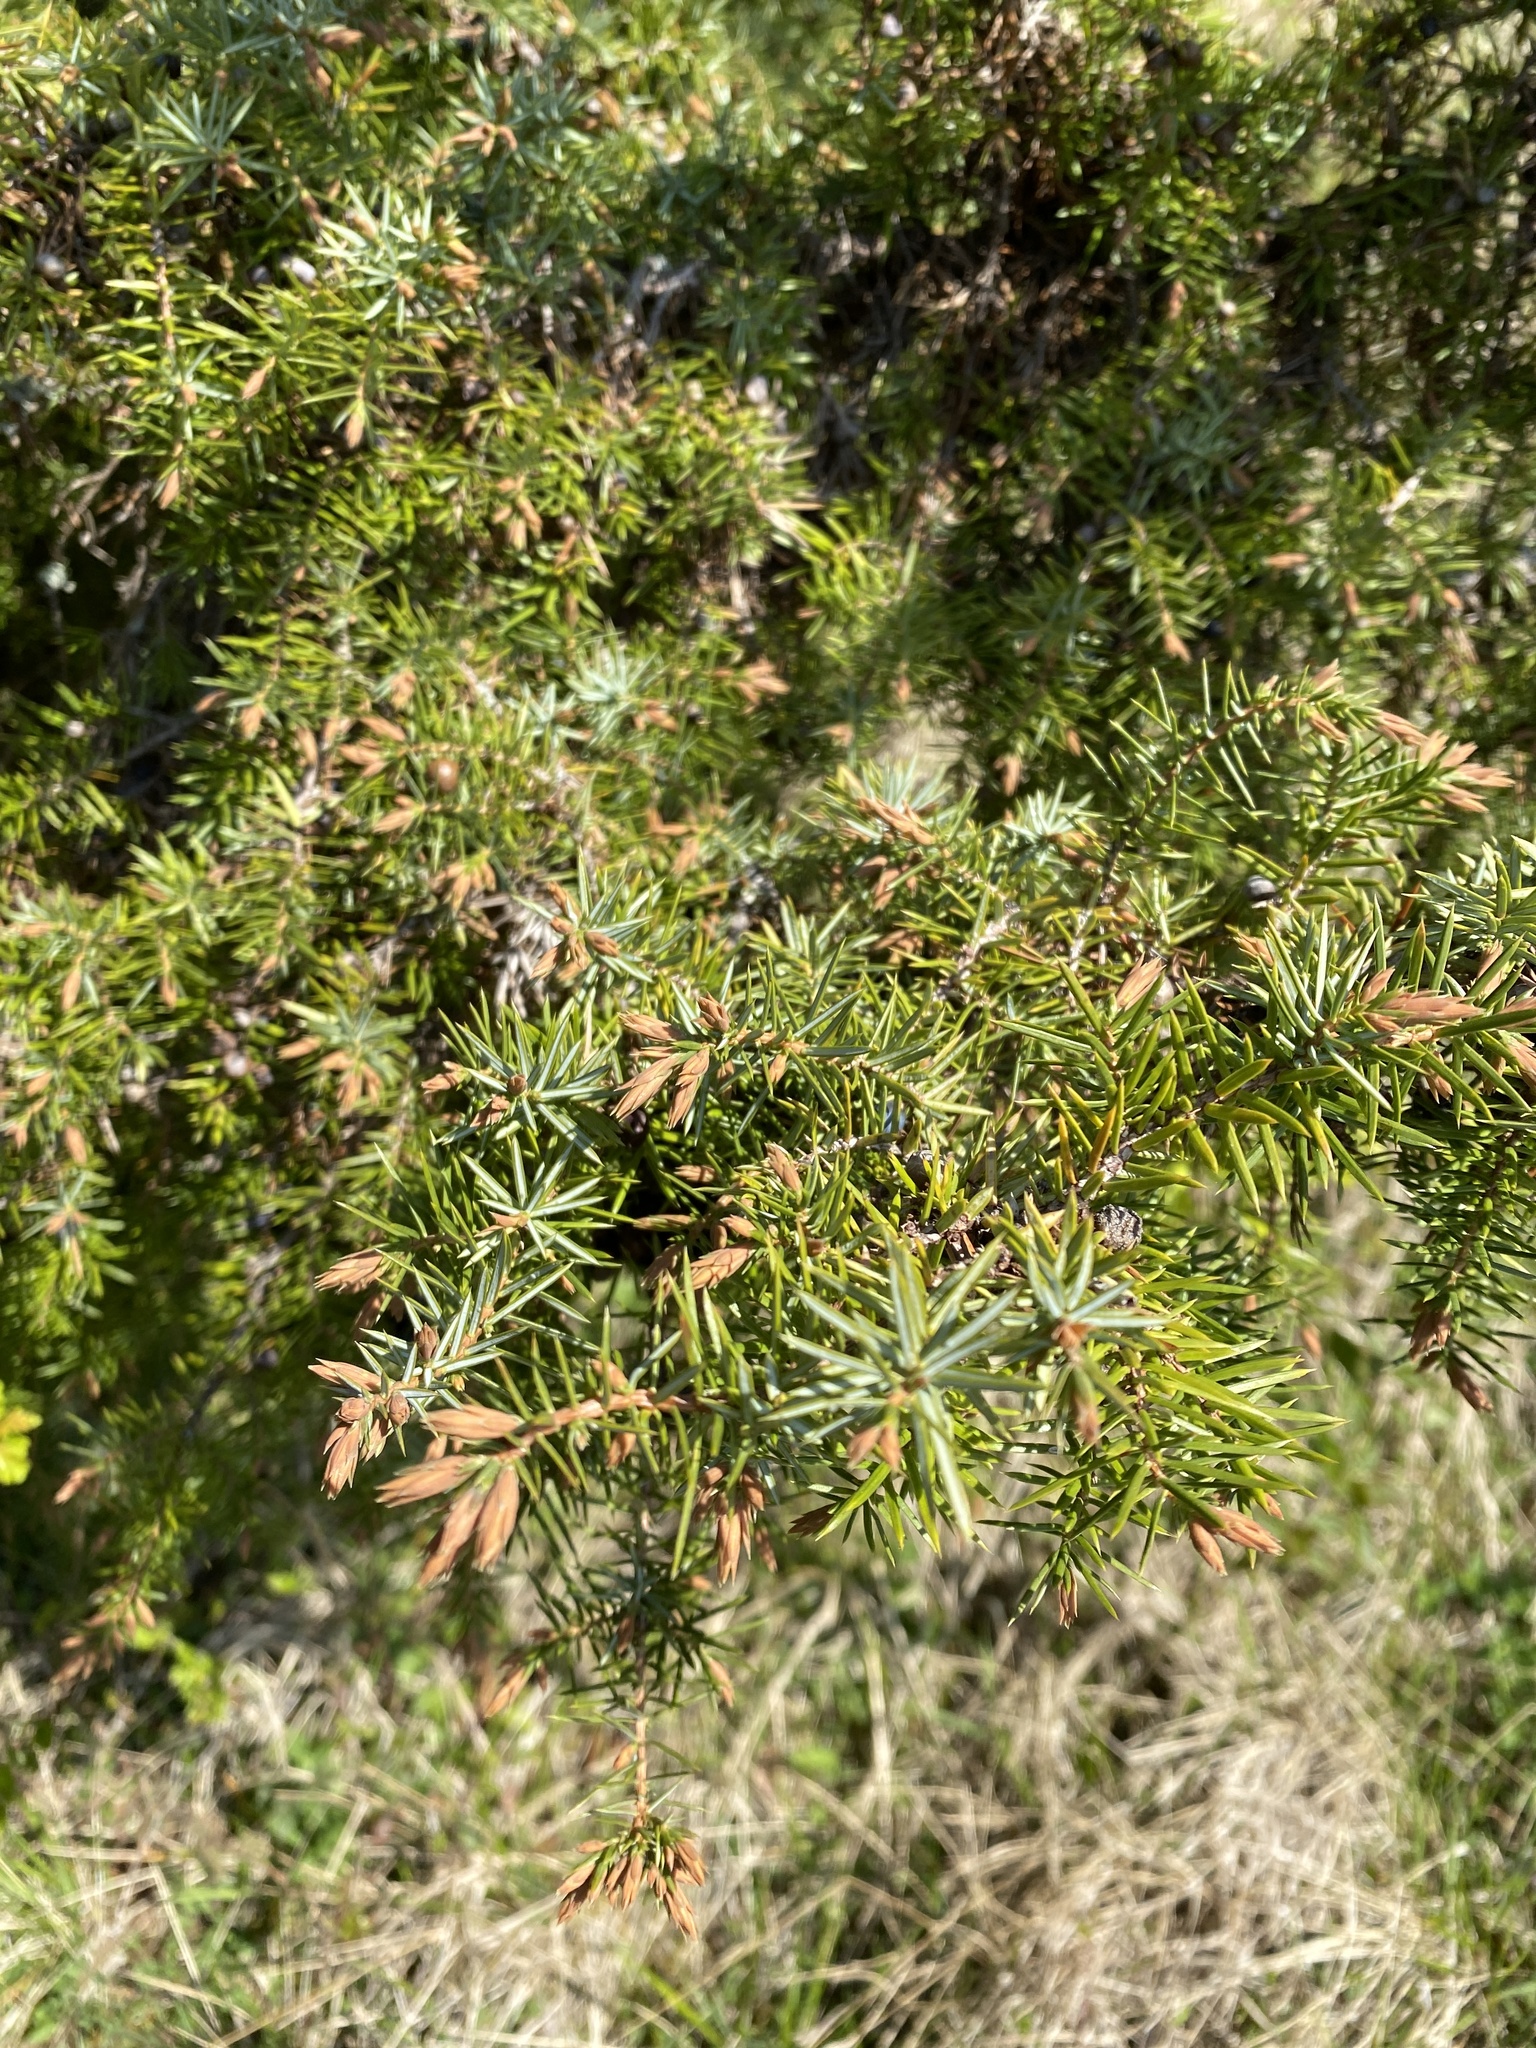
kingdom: Plantae
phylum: Tracheophyta
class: Pinopsida
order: Pinales
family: Cupressaceae
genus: Juniperus
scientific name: Juniperus communis
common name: Common juniper
